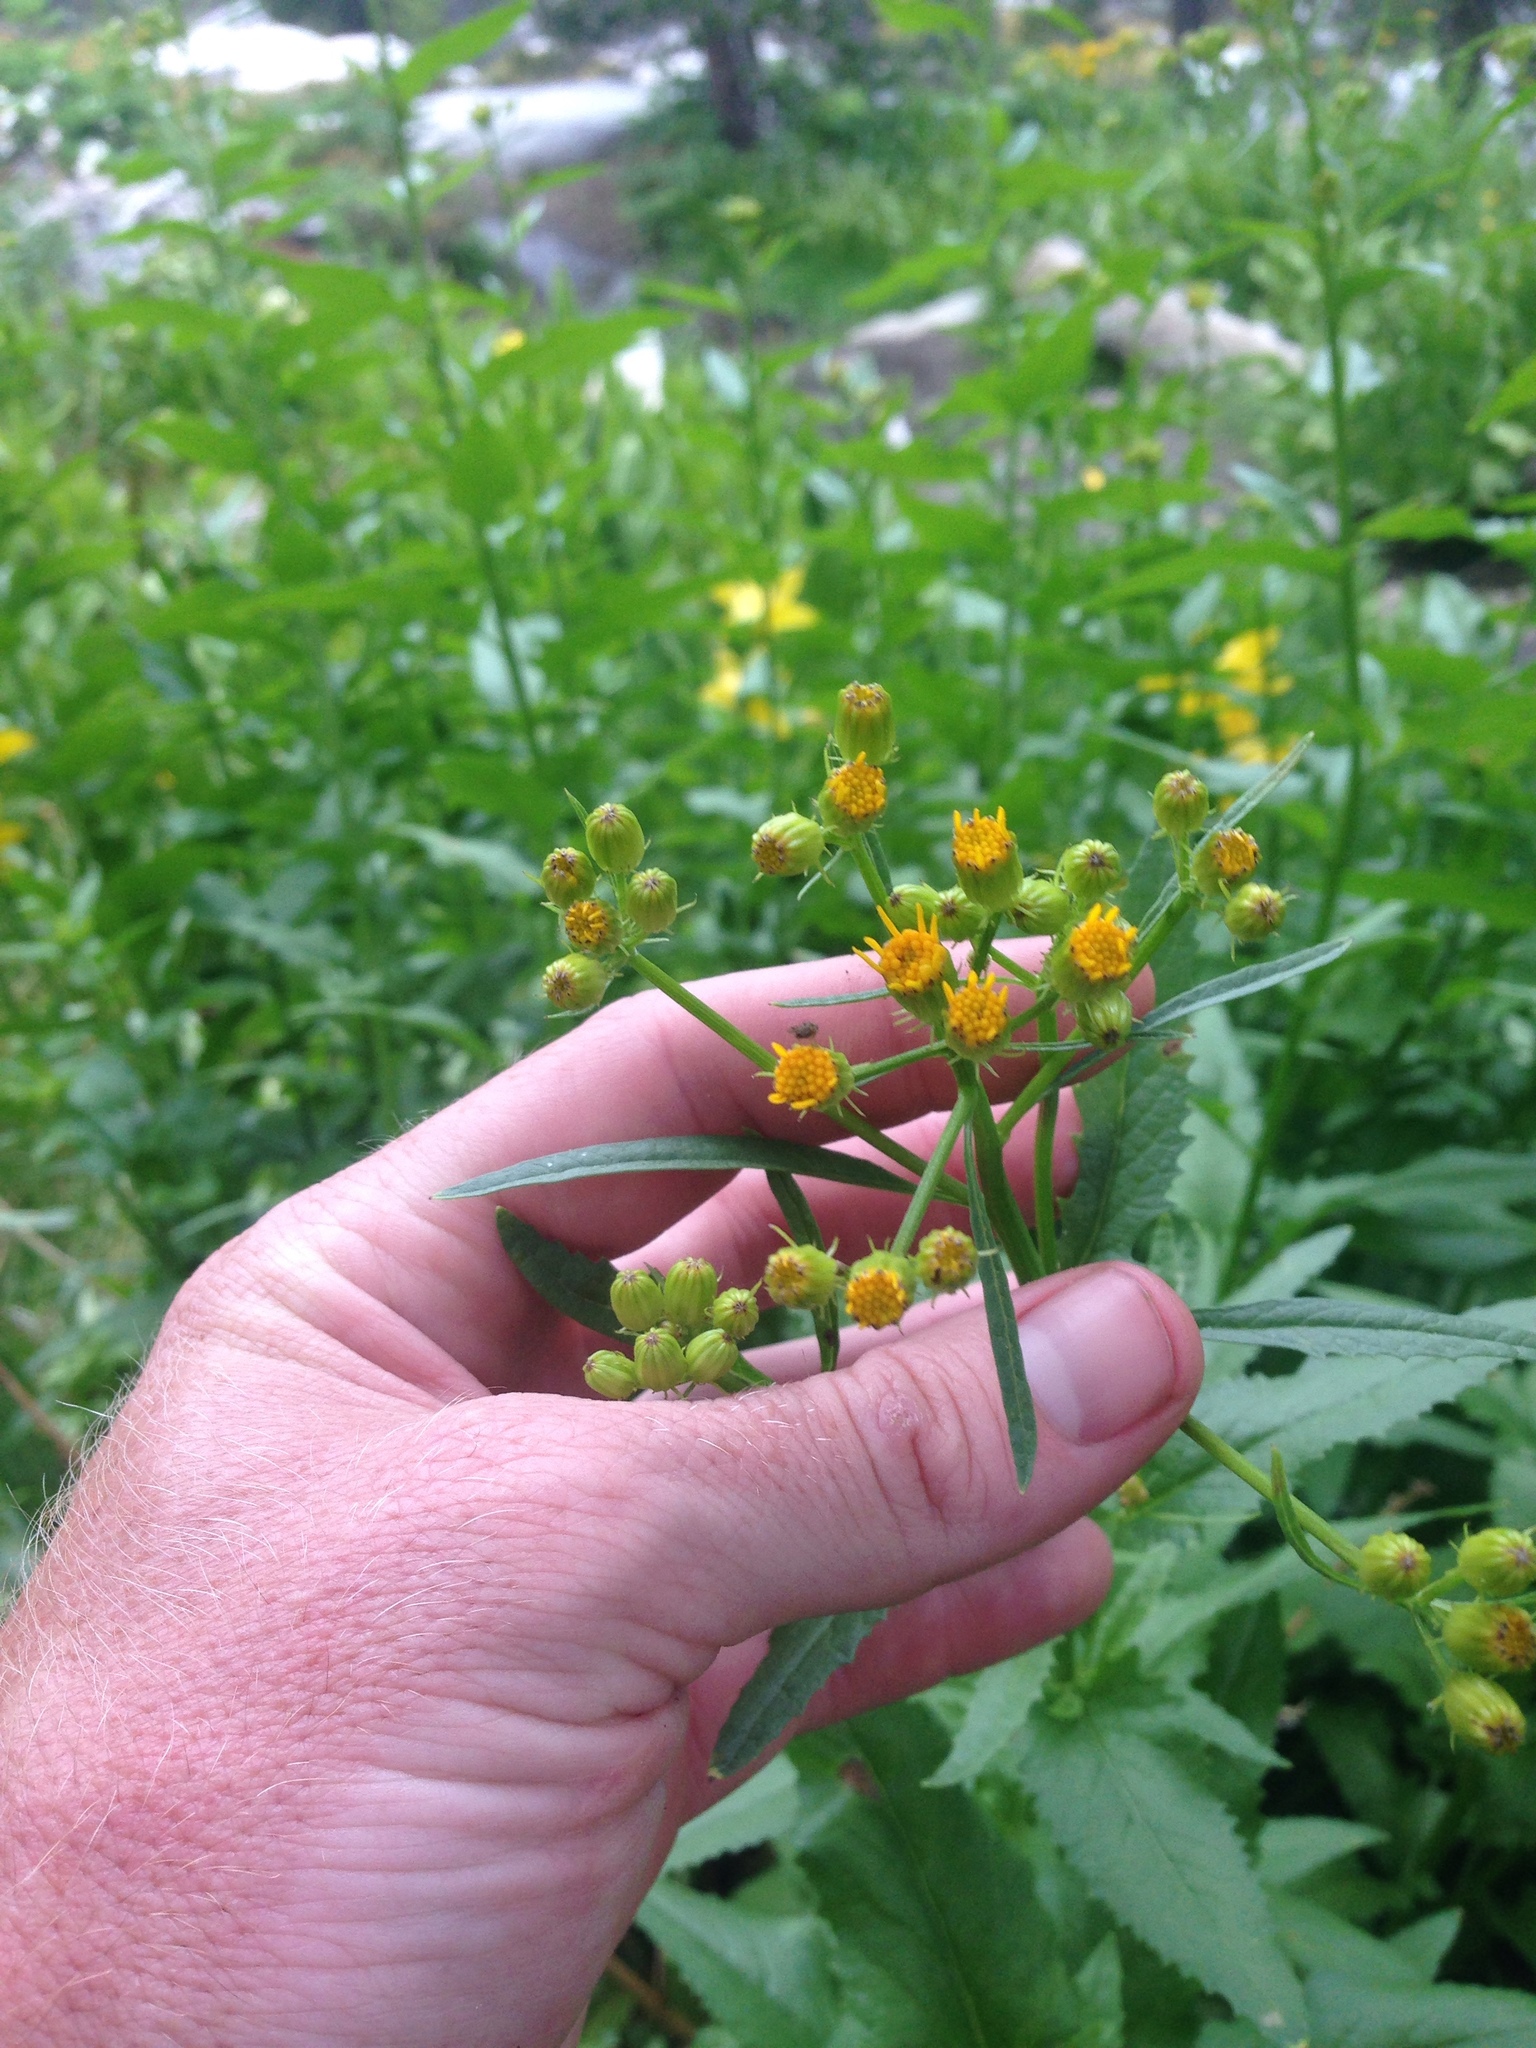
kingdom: Plantae
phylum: Tracheophyta
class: Magnoliopsida
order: Asterales
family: Asteraceae
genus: Senecio
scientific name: Senecio triangularis
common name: Arrowleaf butterweed
